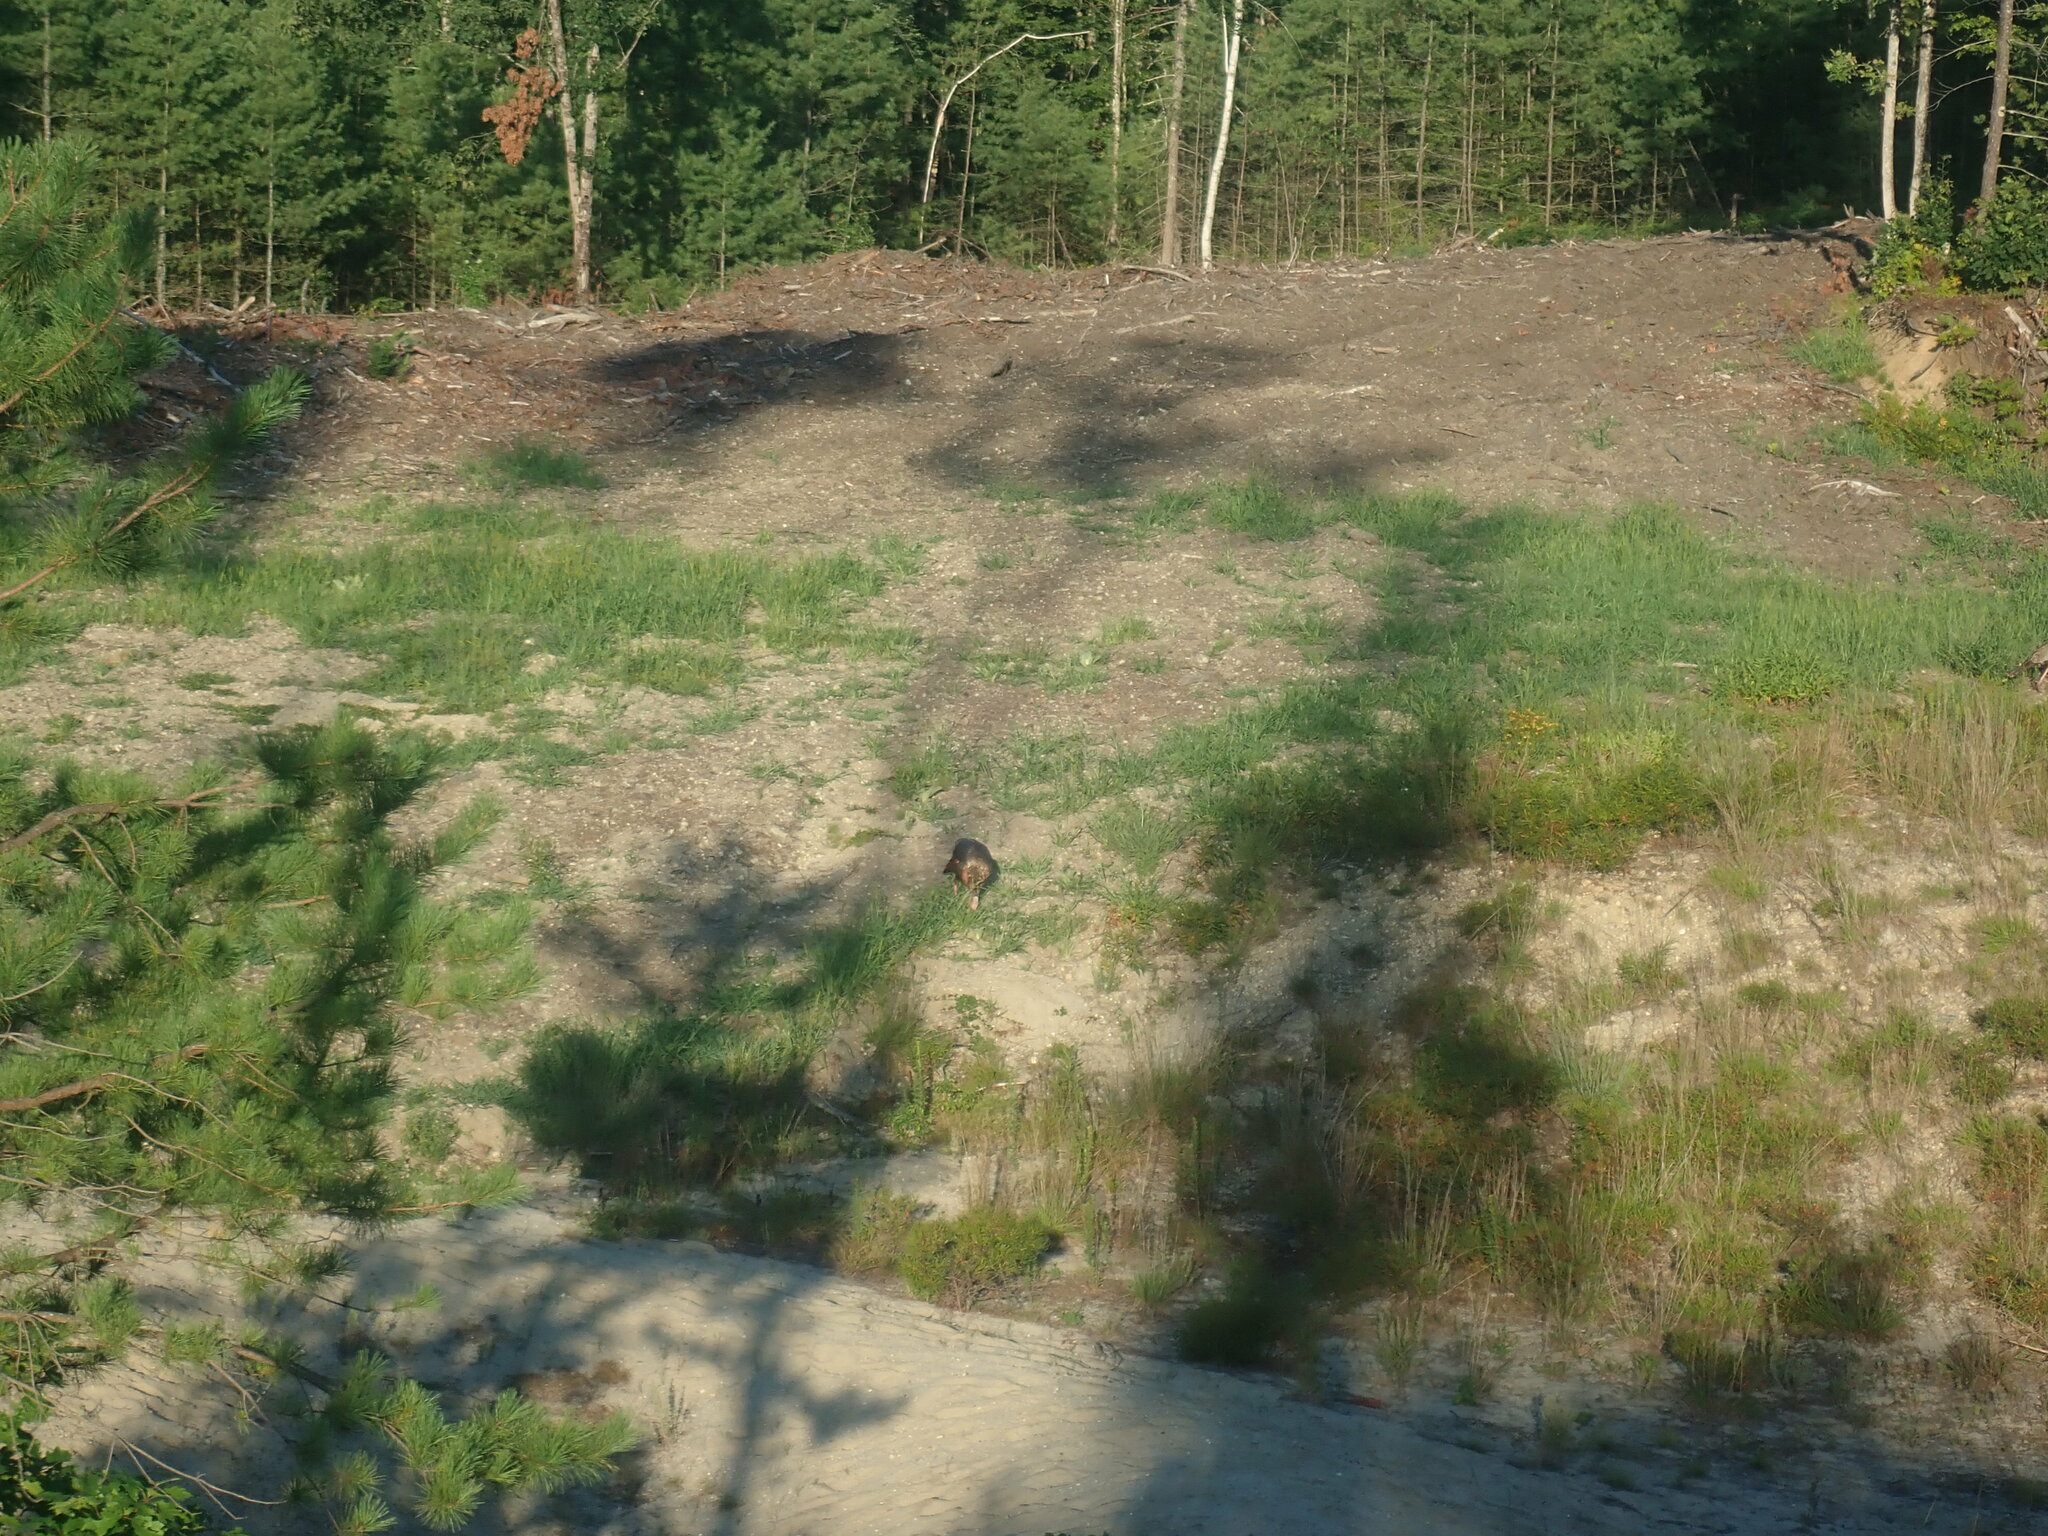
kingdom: Animalia
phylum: Chordata
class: Aves
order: Galliformes
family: Phasianidae
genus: Meleagris
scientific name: Meleagris gallopavo
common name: Wild turkey
